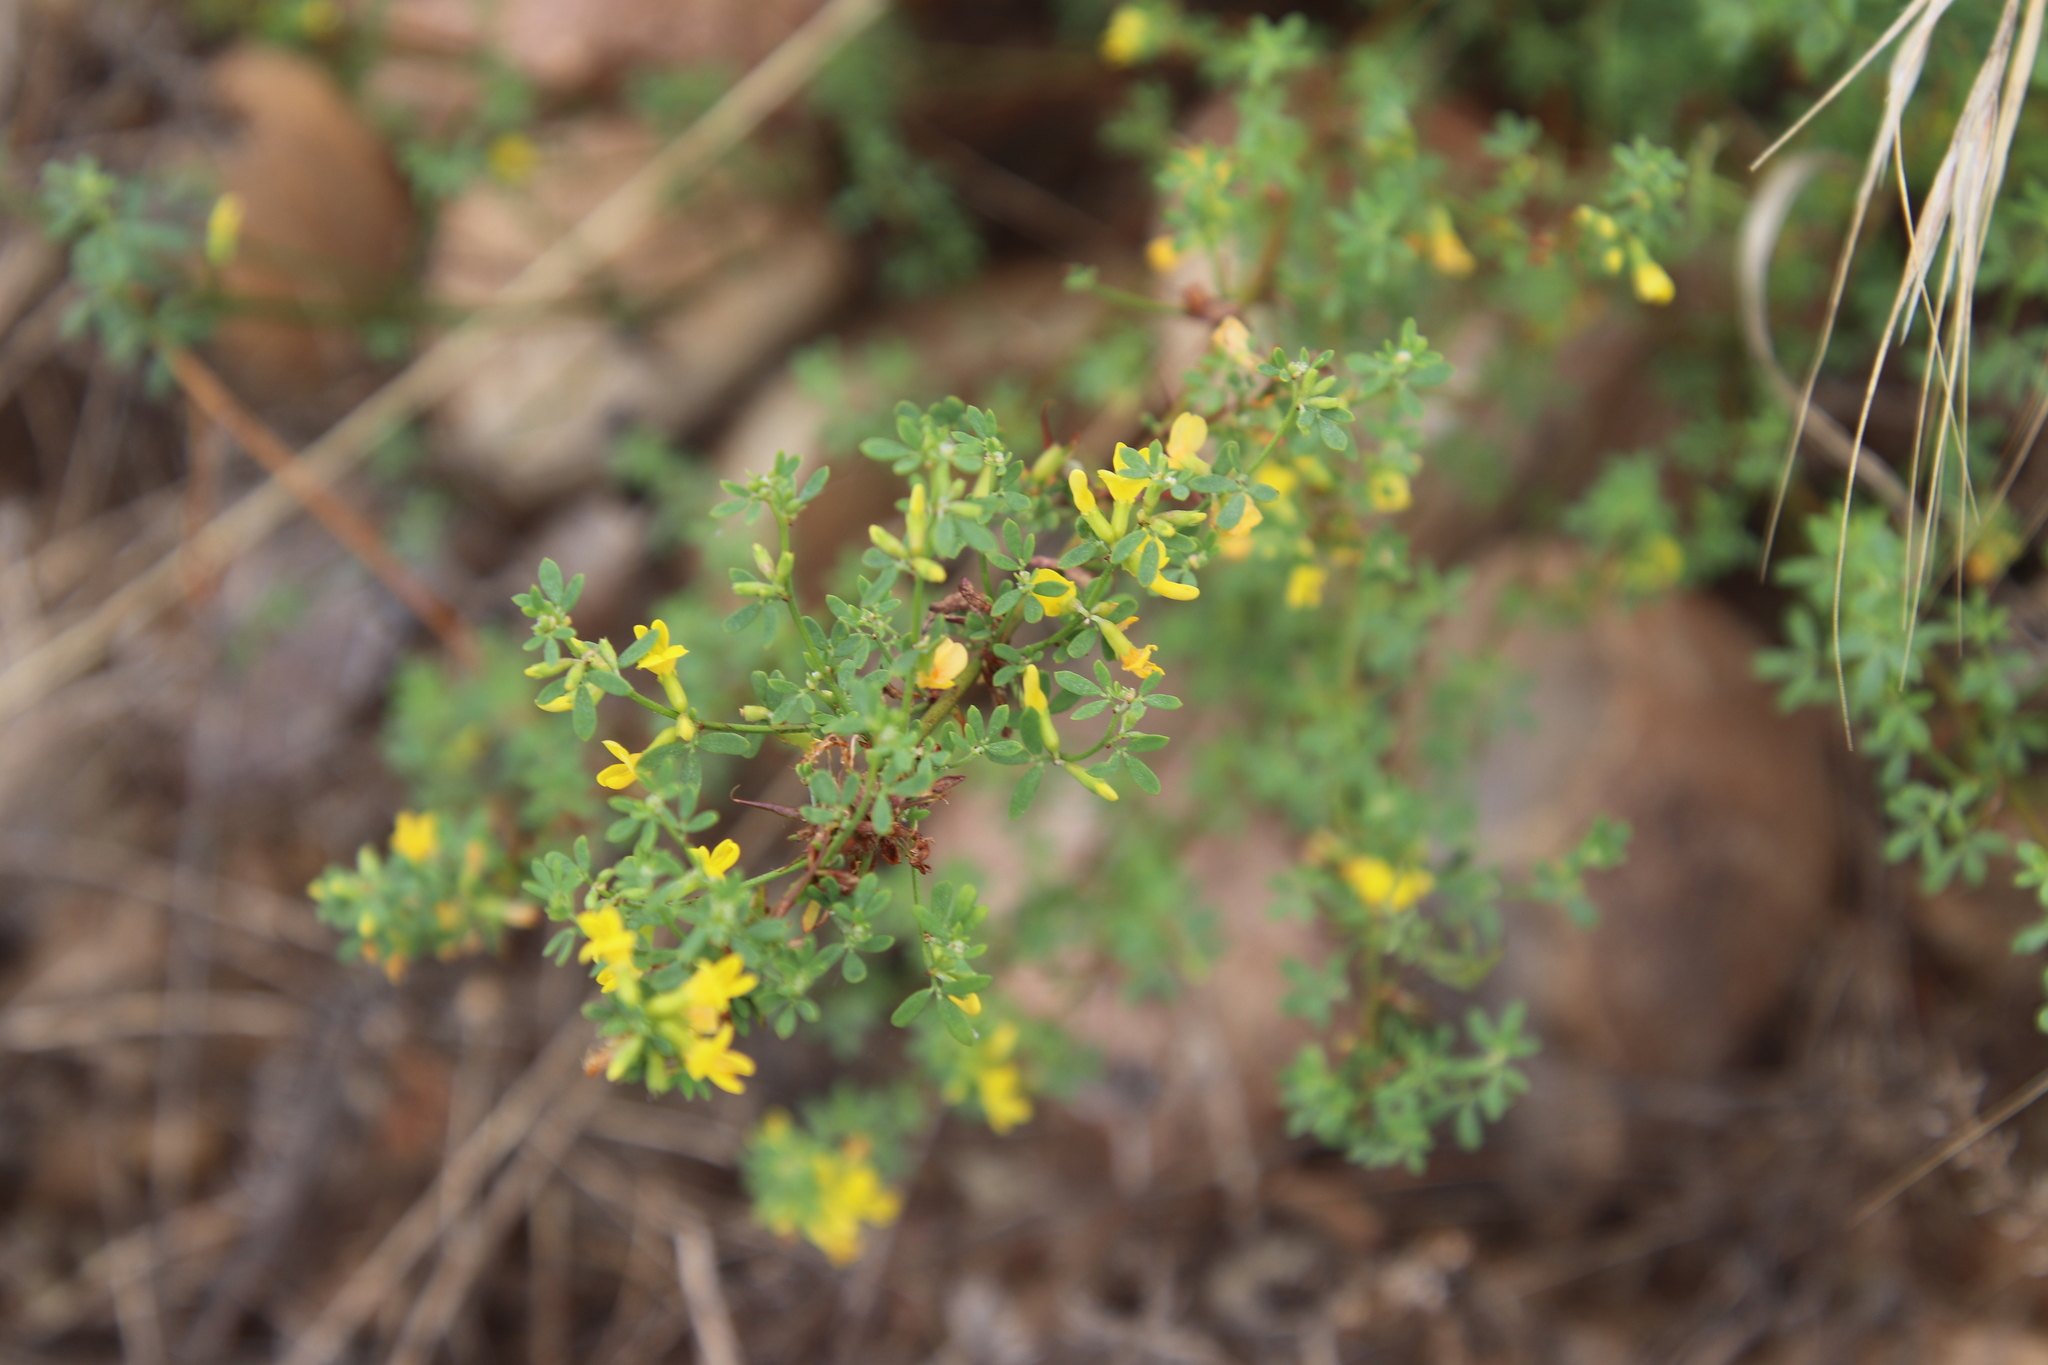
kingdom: Plantae
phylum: Tracheophyta
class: Magnoliopsida
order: Fabales
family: Fabaceae
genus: Acmispon
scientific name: Acmispon glaber
